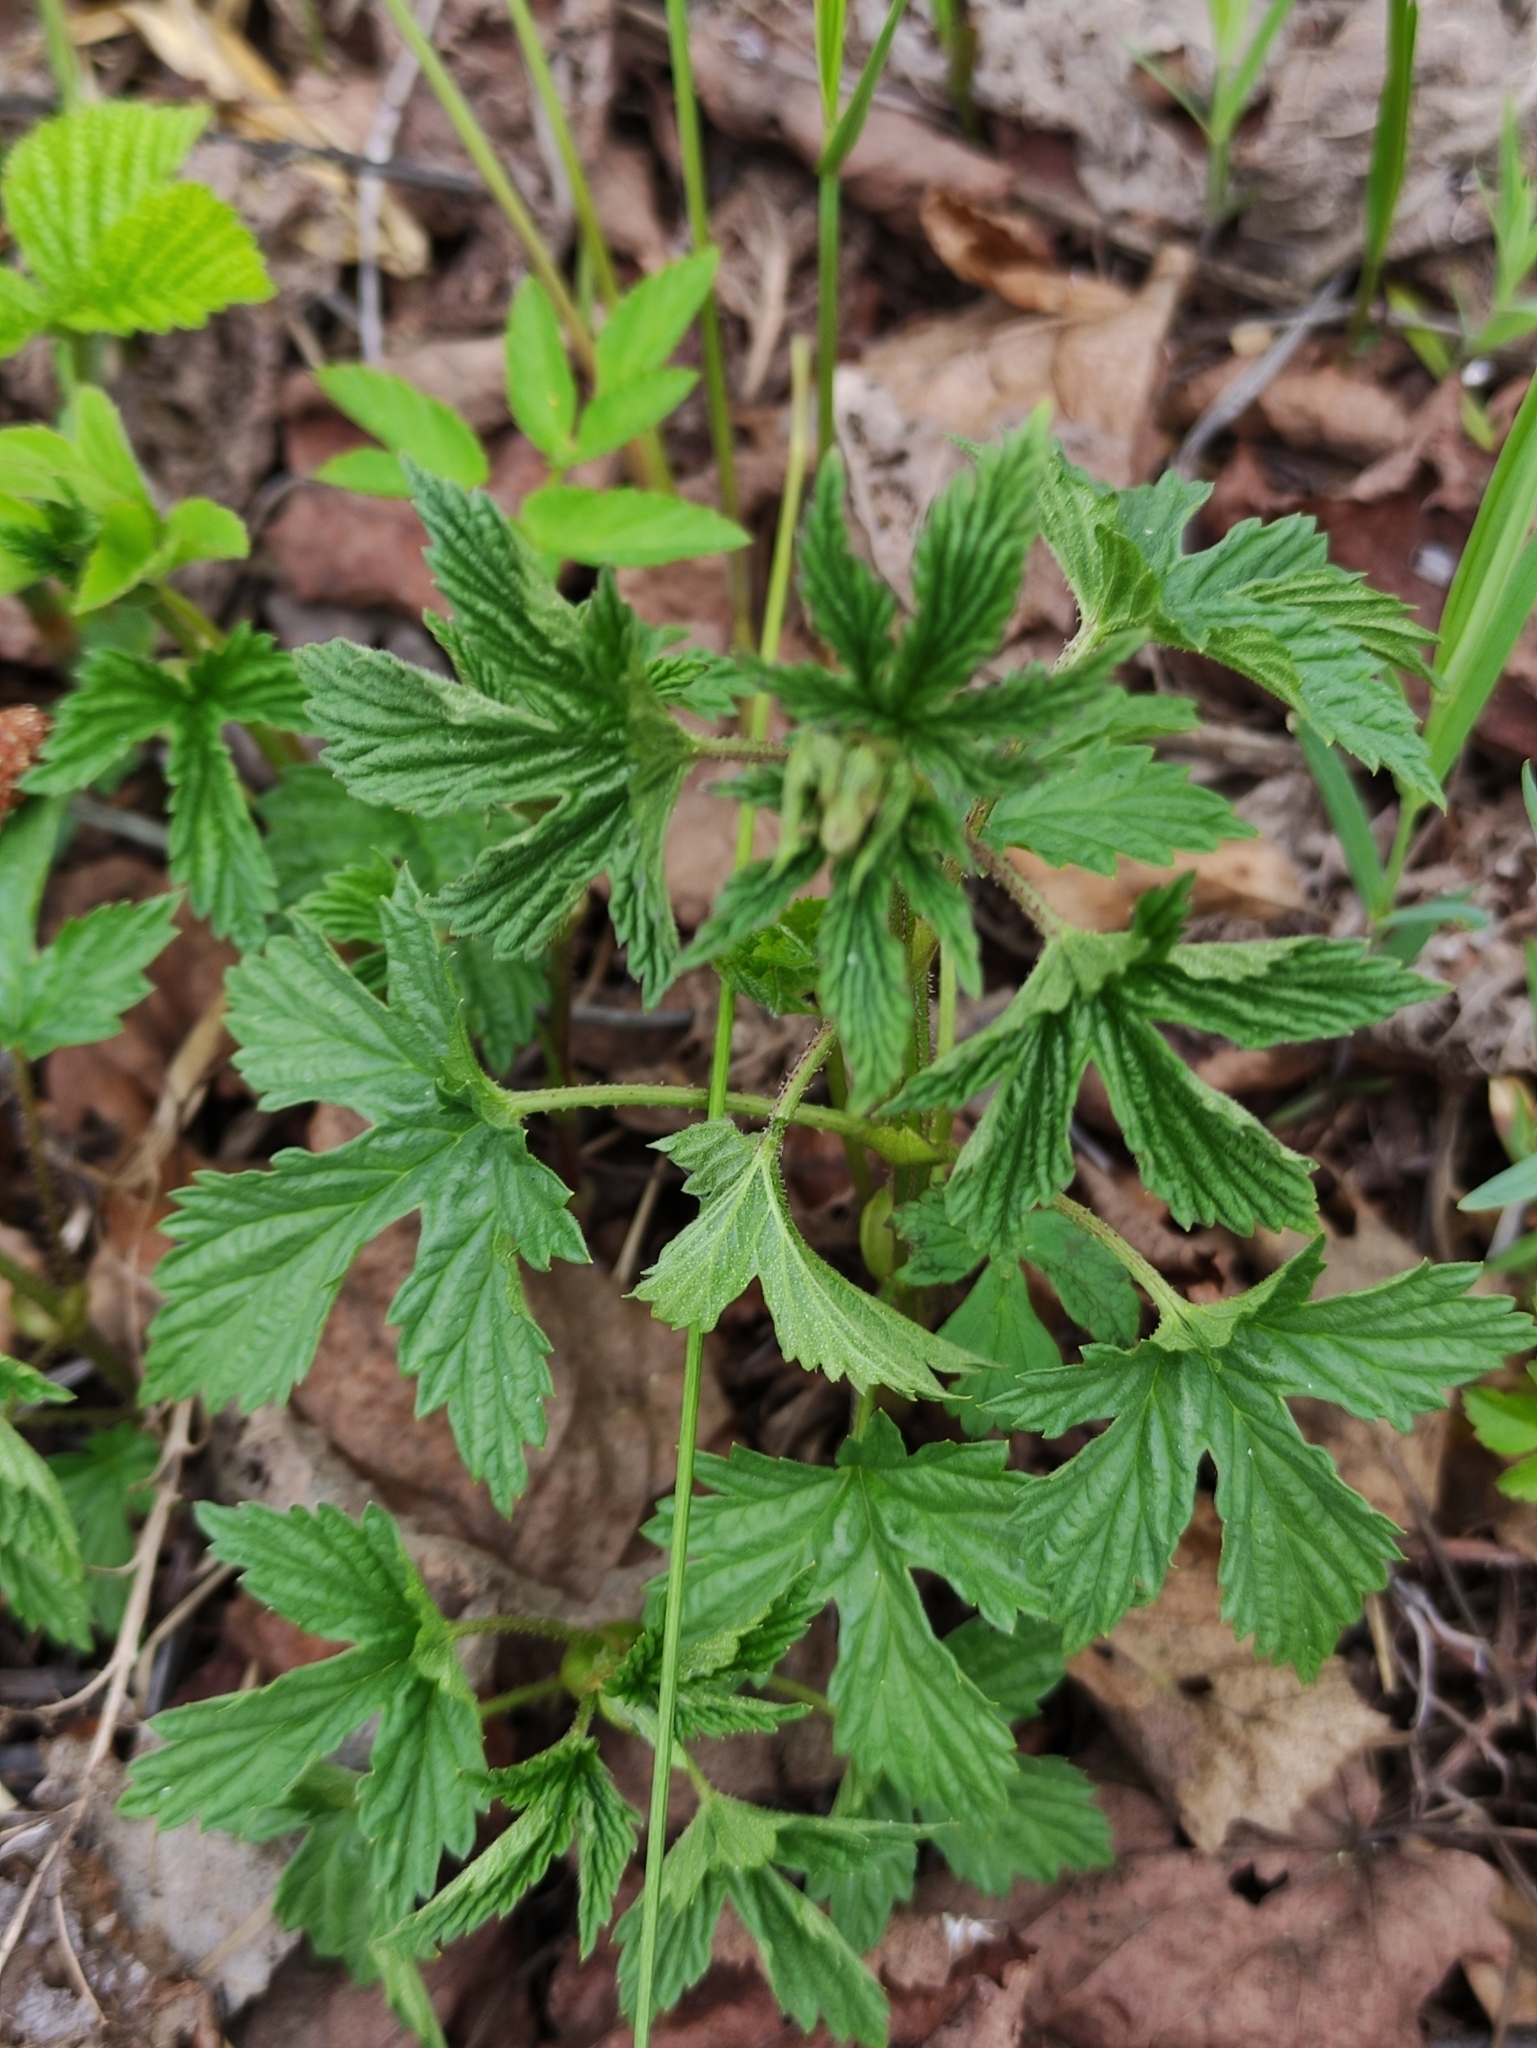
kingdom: Plantae
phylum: Tracheophyta
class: Magnoliopsida
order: Rosales
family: Cannabaceae
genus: Humulus
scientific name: Humulus lupulus
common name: Hop
